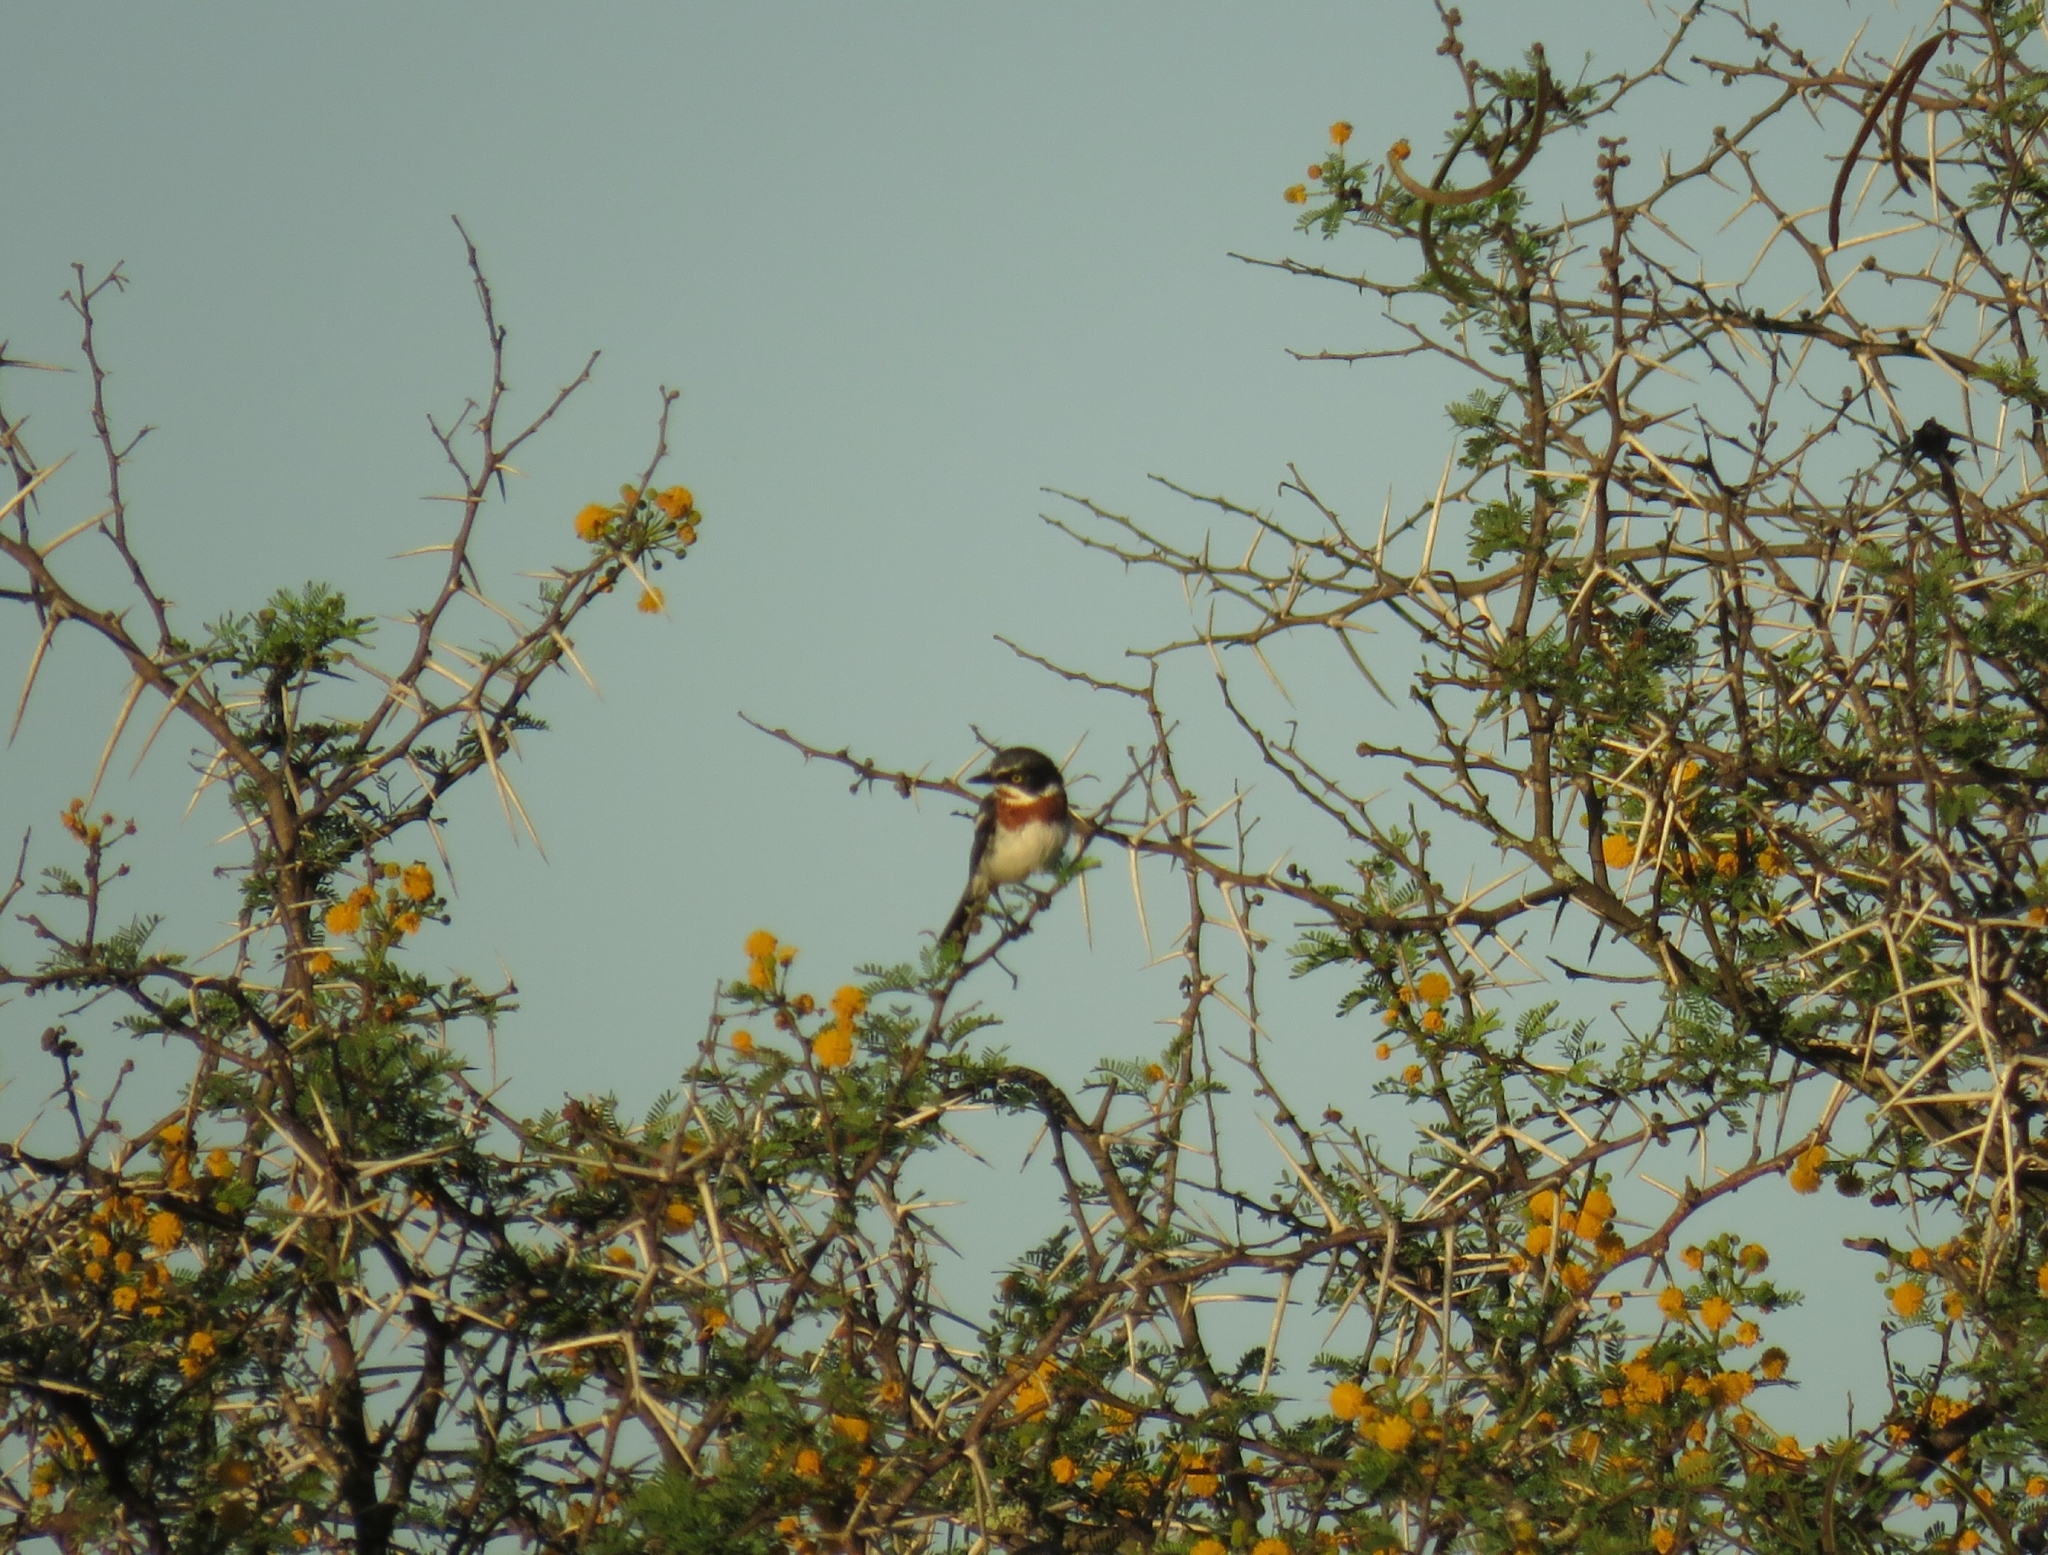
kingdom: Animalia
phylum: Chordata
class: Aves
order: Passeriformes
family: Platysteiridae
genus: Batis
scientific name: Batis molitor
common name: Chinspot batis
